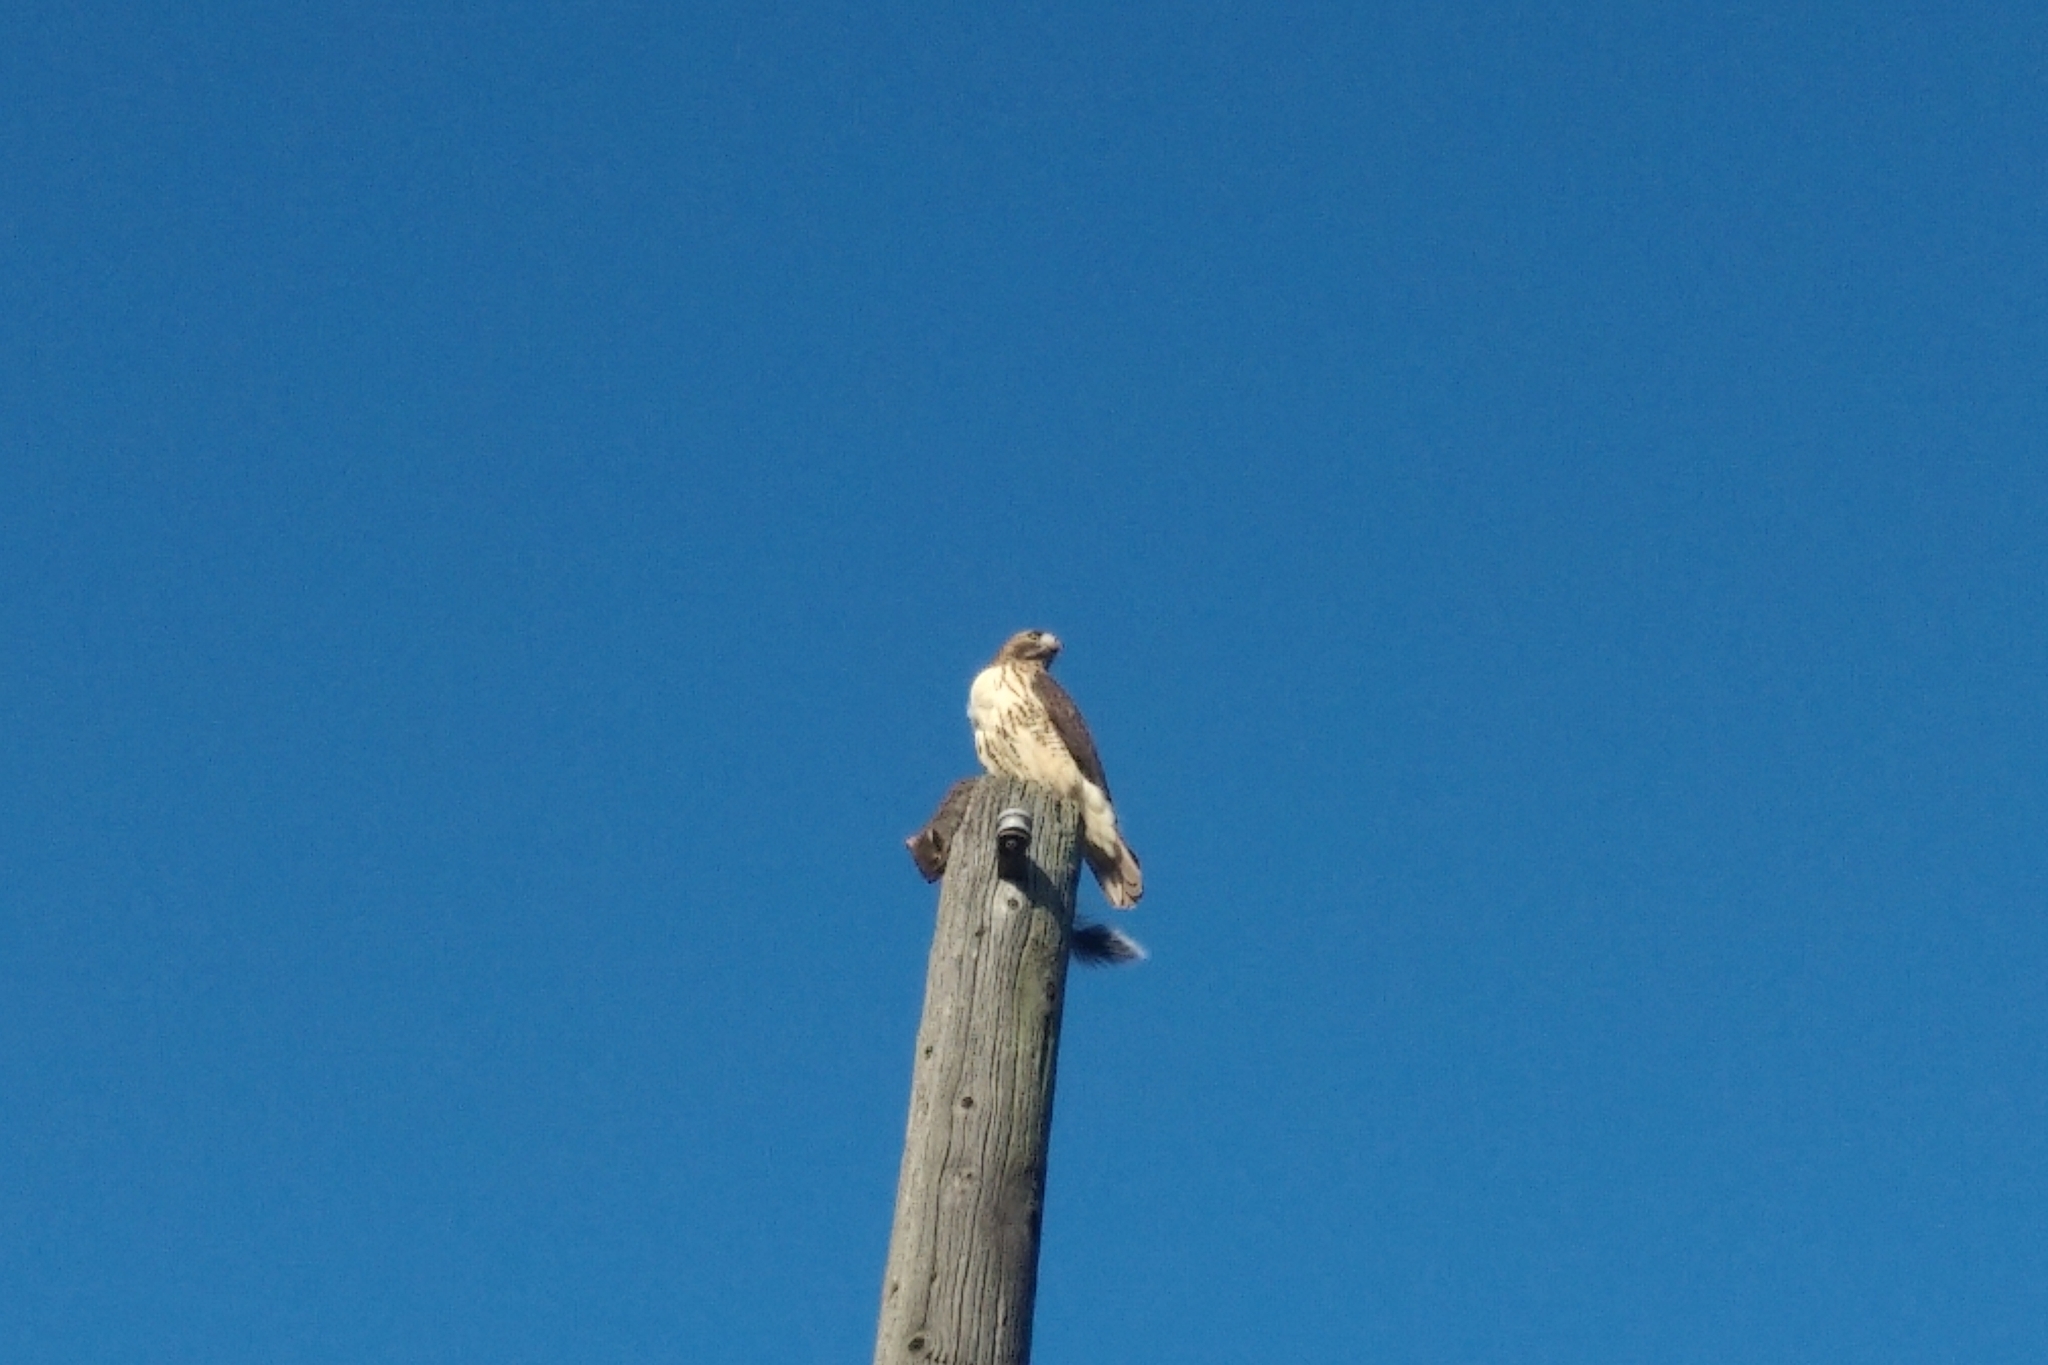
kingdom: Animalia
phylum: Chordata
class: Aves
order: Accipitriformes
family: Accipitridae
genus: Buteo
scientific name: Buteo jamaicensis
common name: Red-tailed hawk
